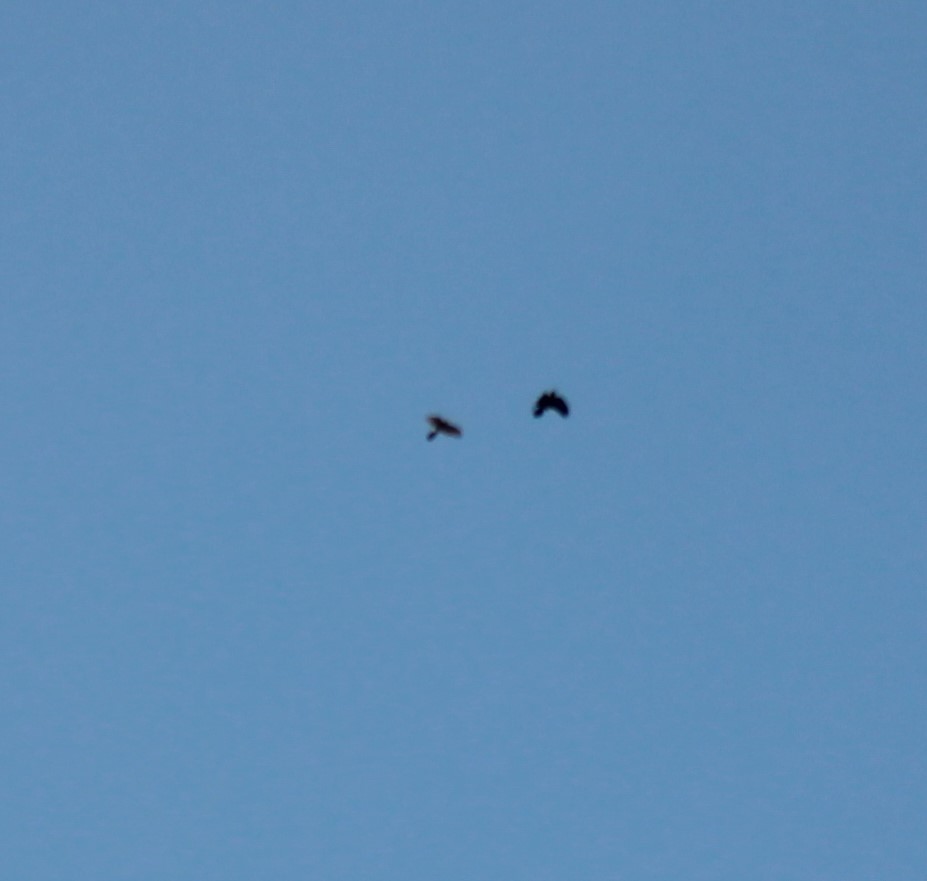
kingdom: Animalia
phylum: Chordata
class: Aves
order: Accipitriformes
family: Accipitridae
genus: Accipiter
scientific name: Accipiter nisus
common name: Eurasian sparrowhawk
